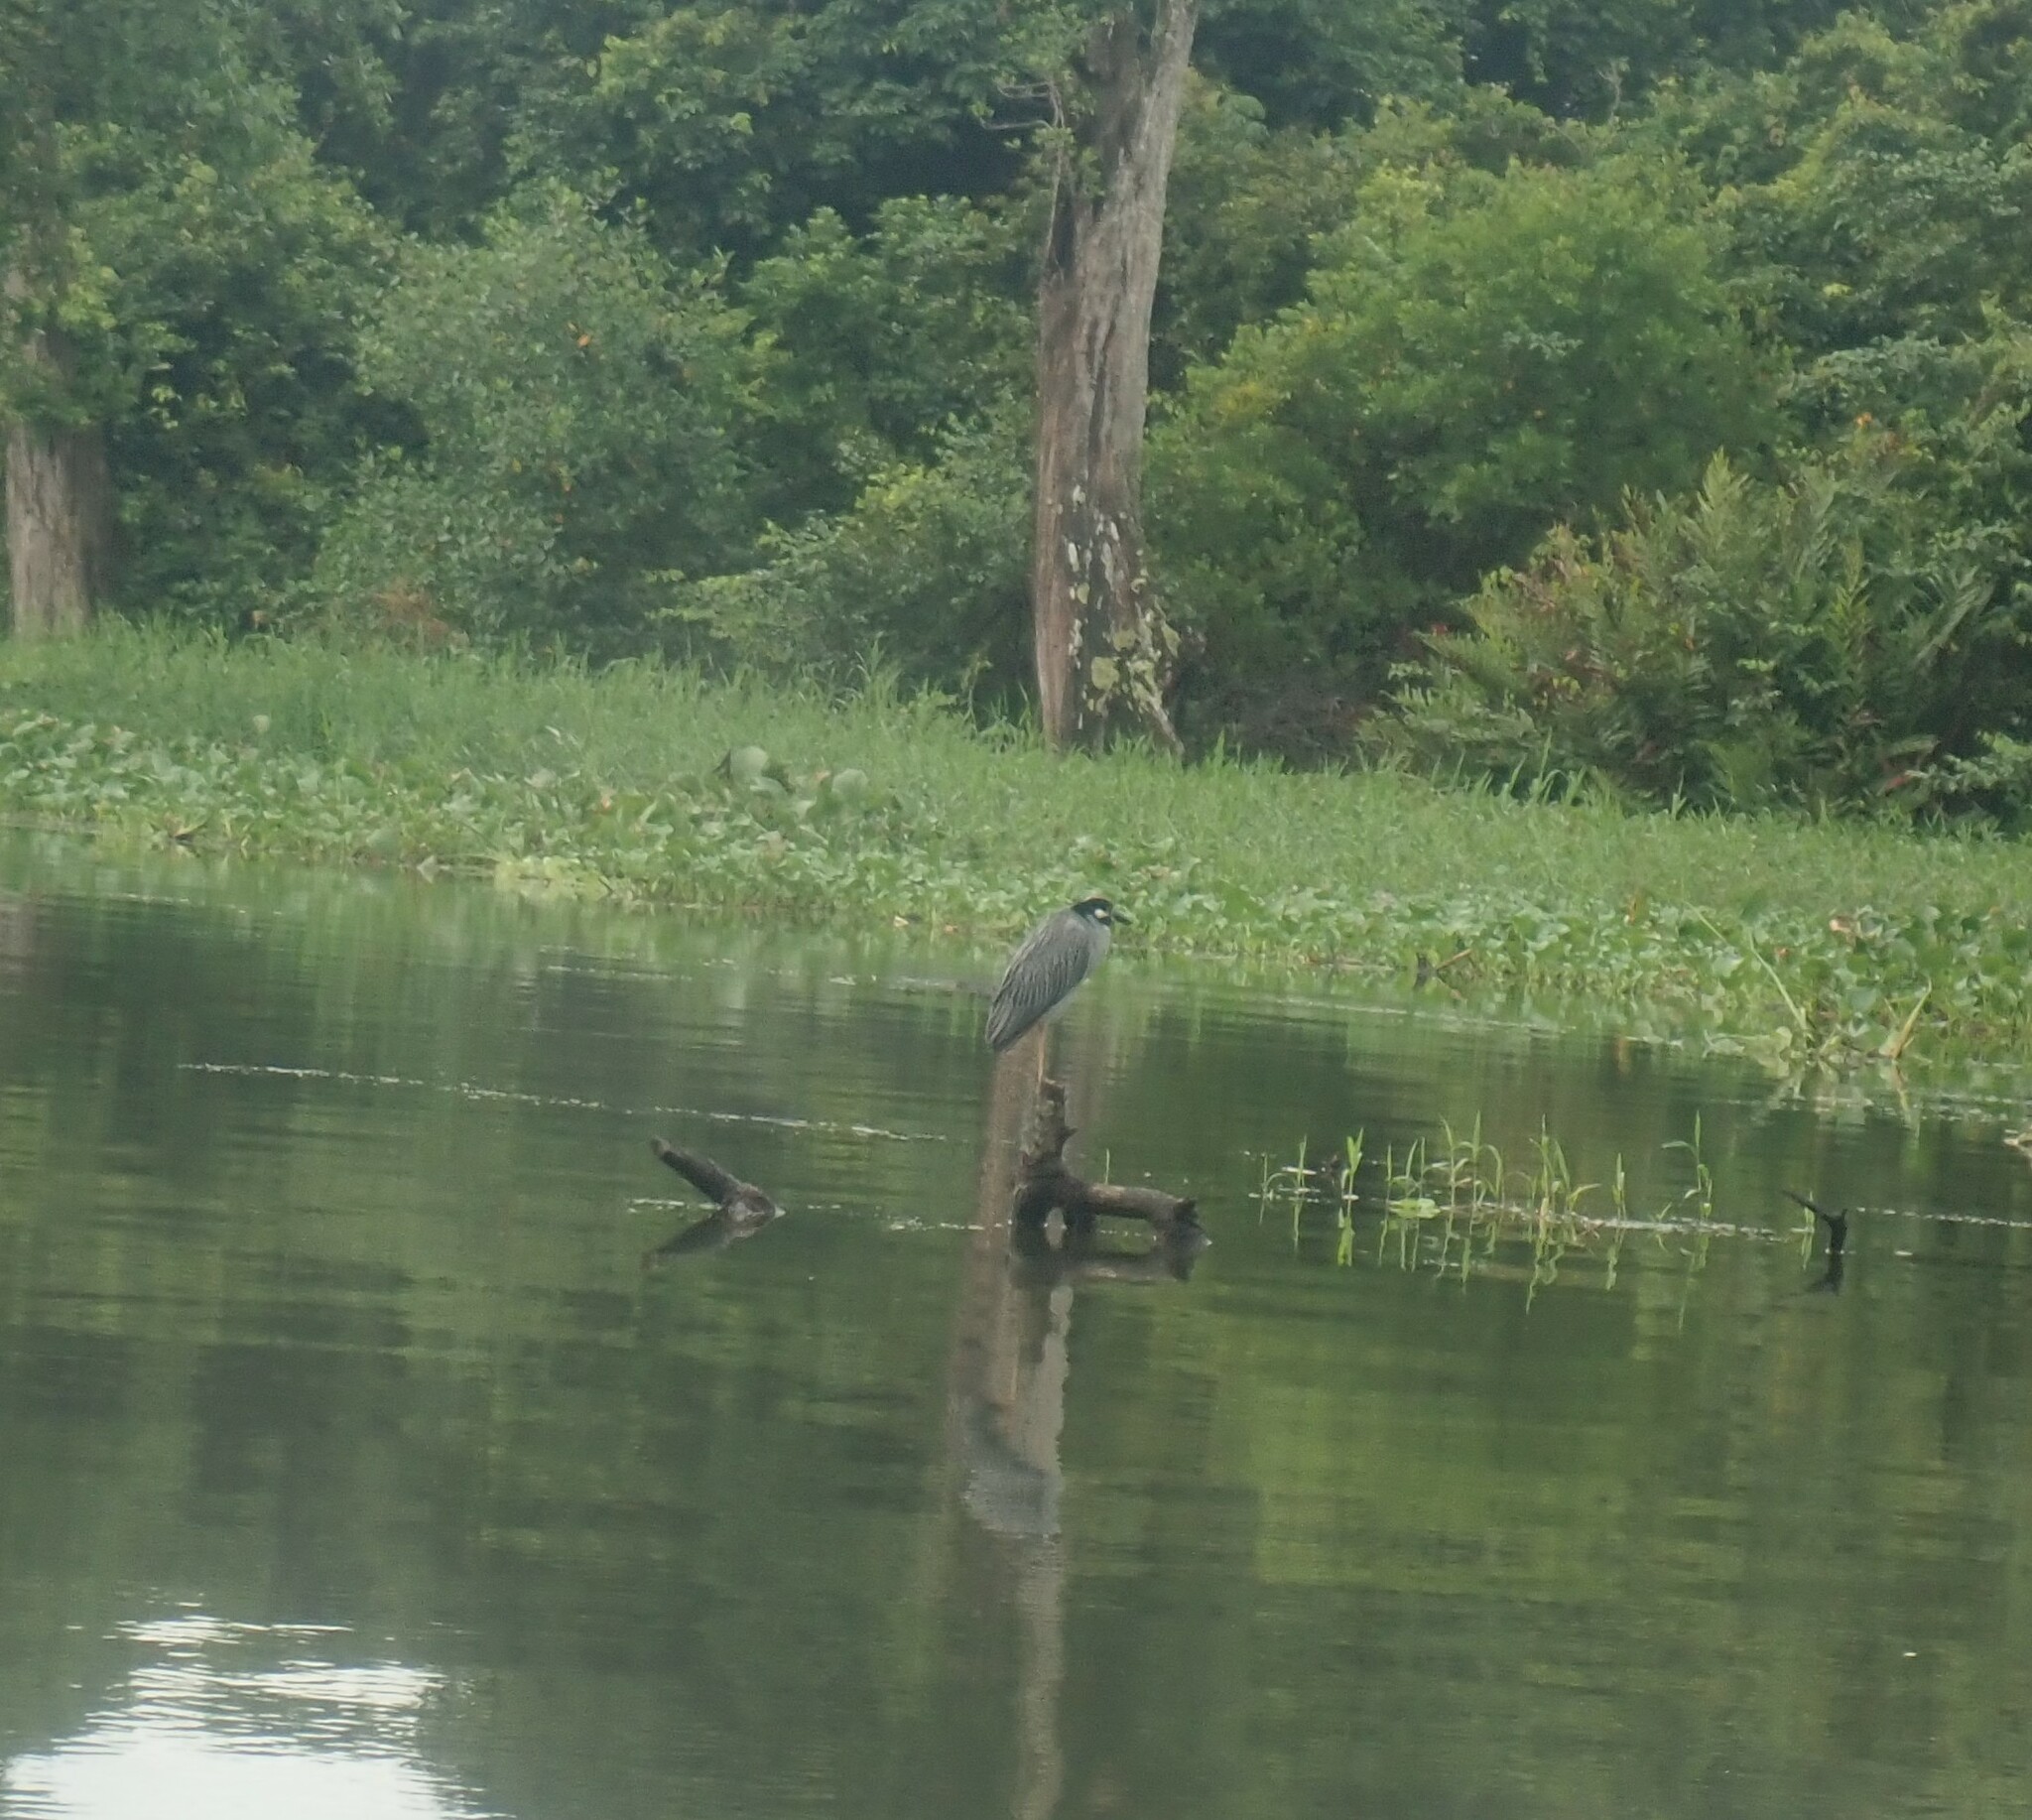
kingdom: Animalia
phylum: Chordata
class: Aves
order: Pelecaniformes
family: Ardeidae
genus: Nyctanassa
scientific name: Nyctanassa violacea
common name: Yellow-crowned night heron
